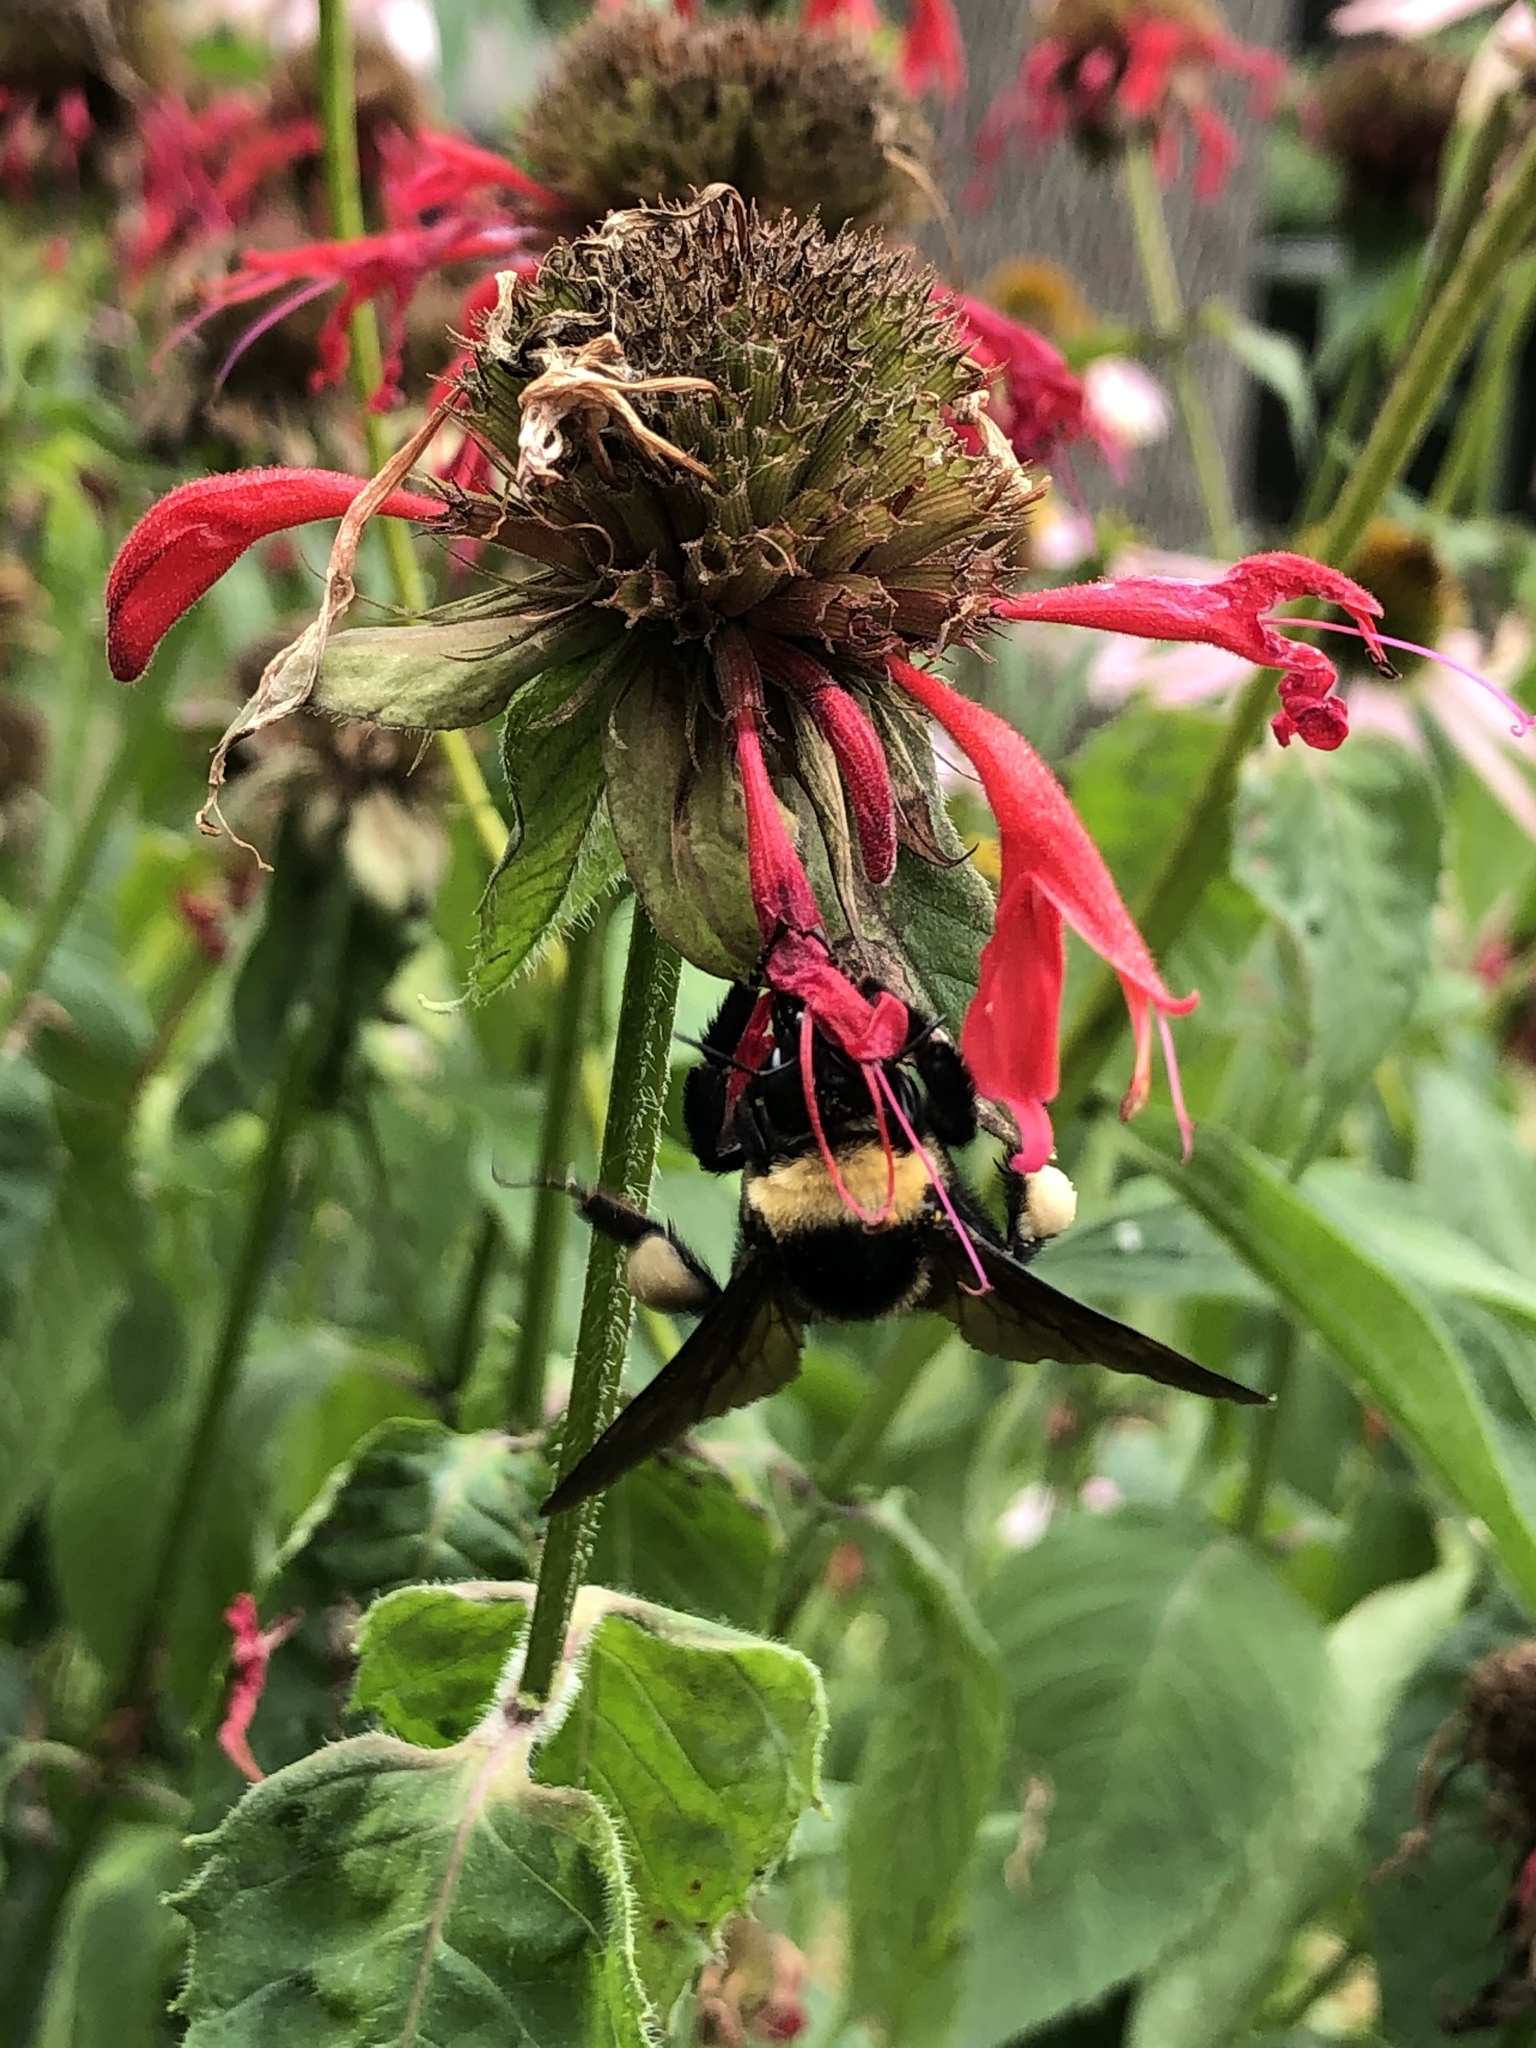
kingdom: Animalia
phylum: Arthropoda
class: Insecta
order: Hymenoptera
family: Apidae
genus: Bombus
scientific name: Bombus auricomus
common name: Black and gold bumble bee
